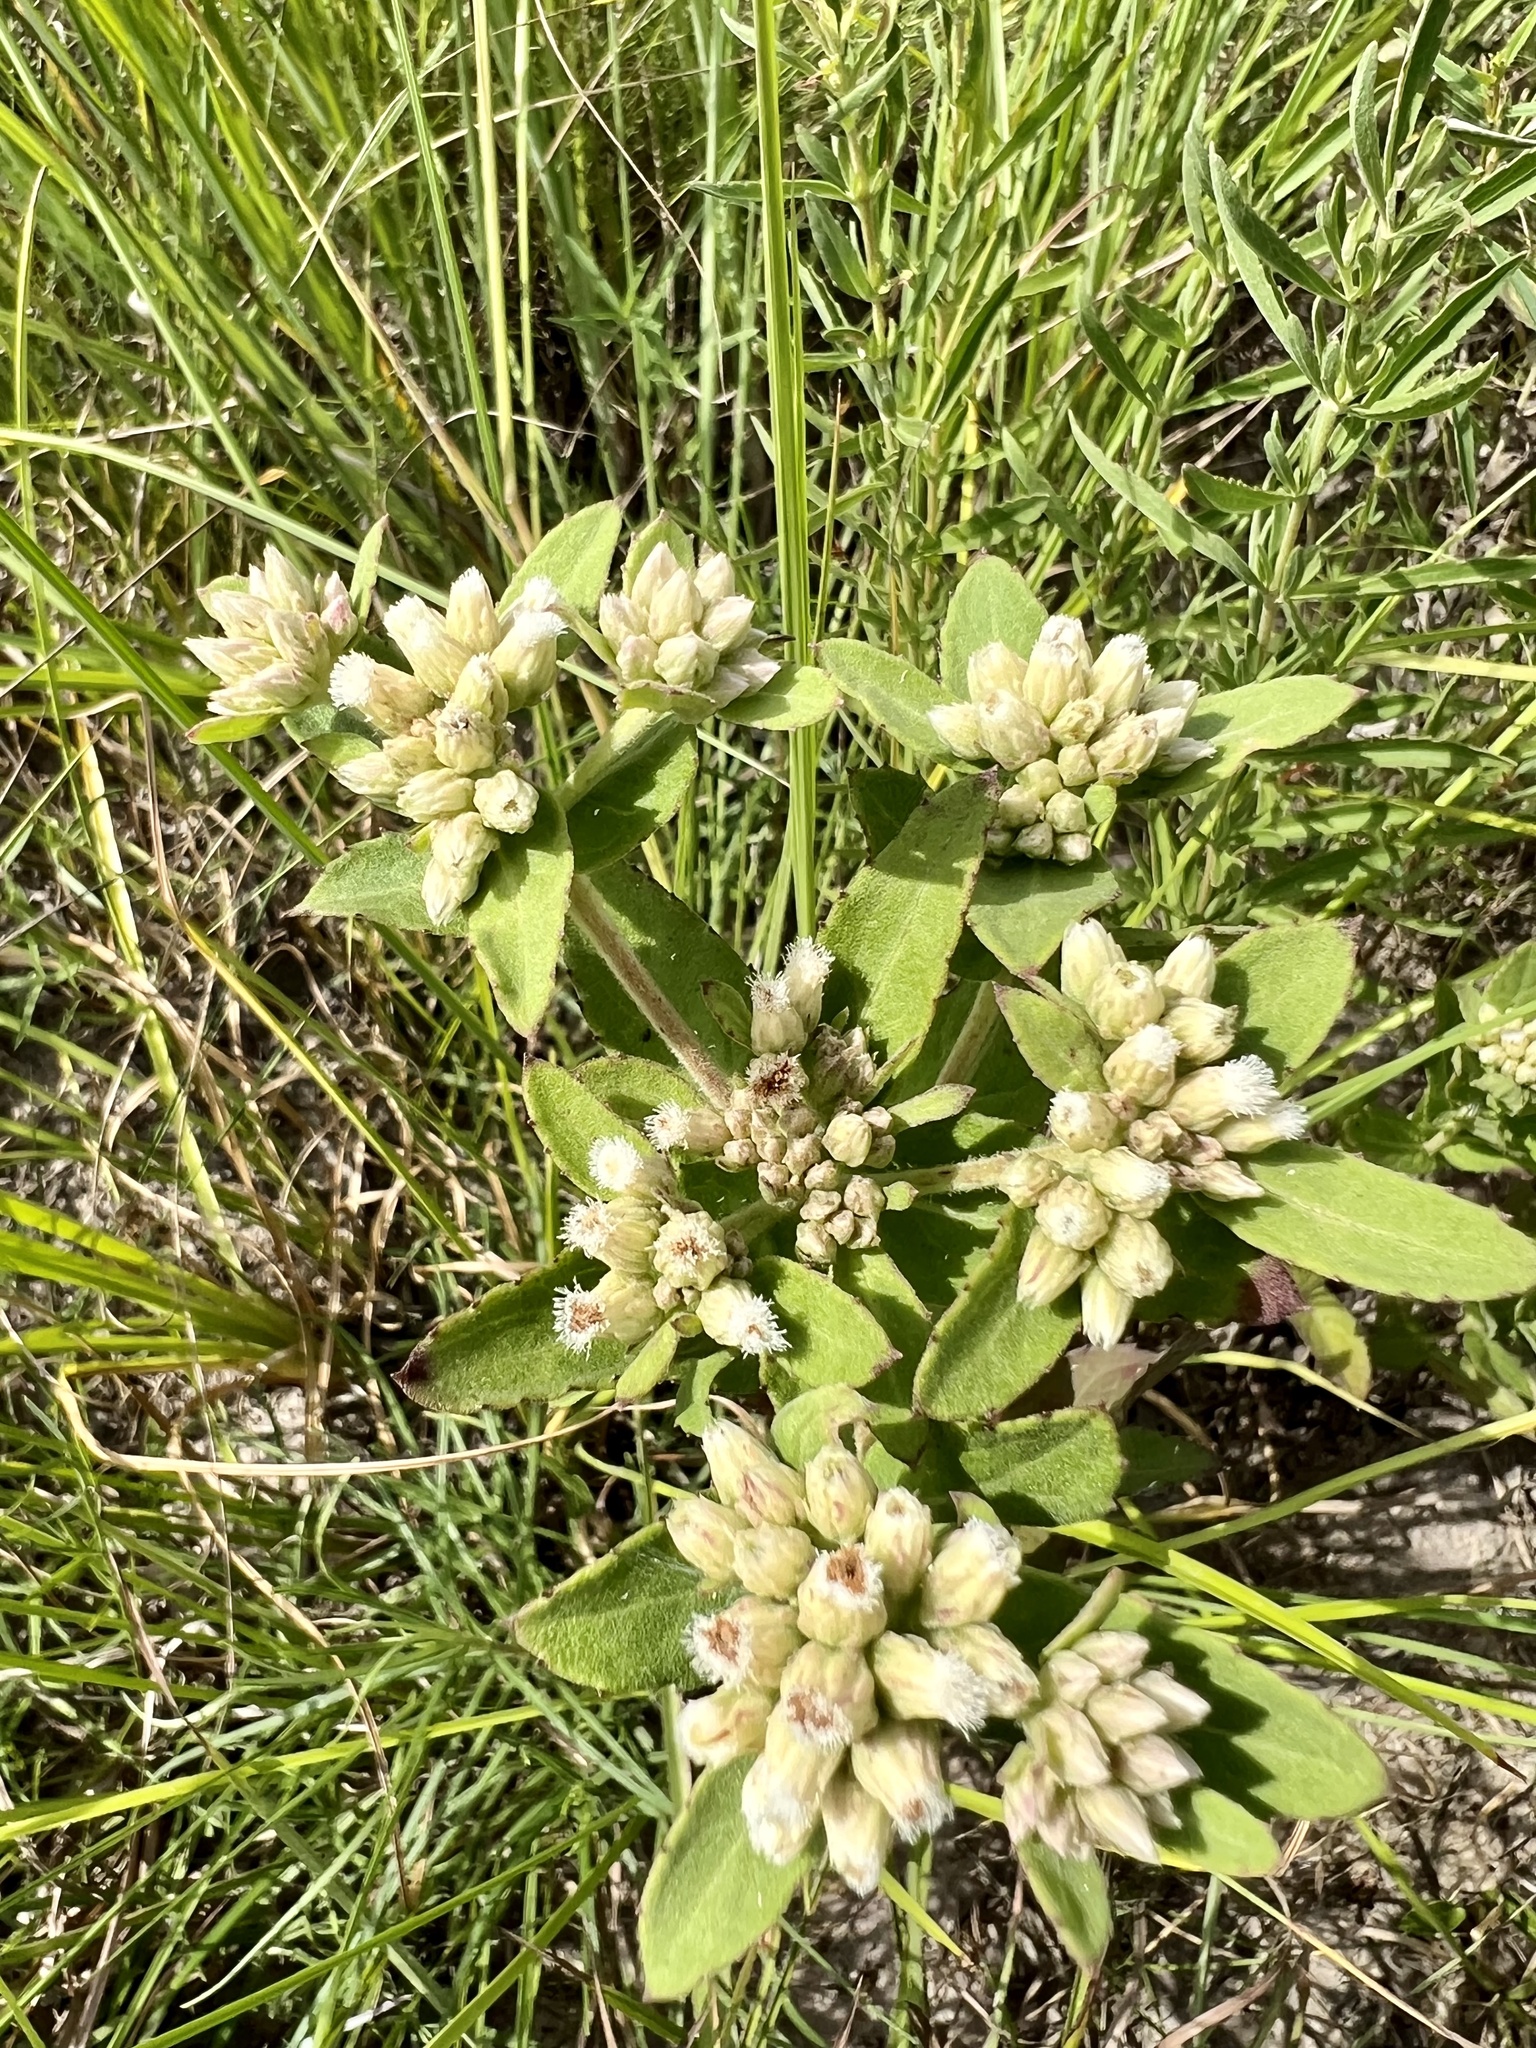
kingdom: Plantae
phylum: Tracheophyta
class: Magnoliopsida
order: Asterales
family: Asteraceae
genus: Pluchea
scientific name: Pluchea foetida
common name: Stinking camphorweed
